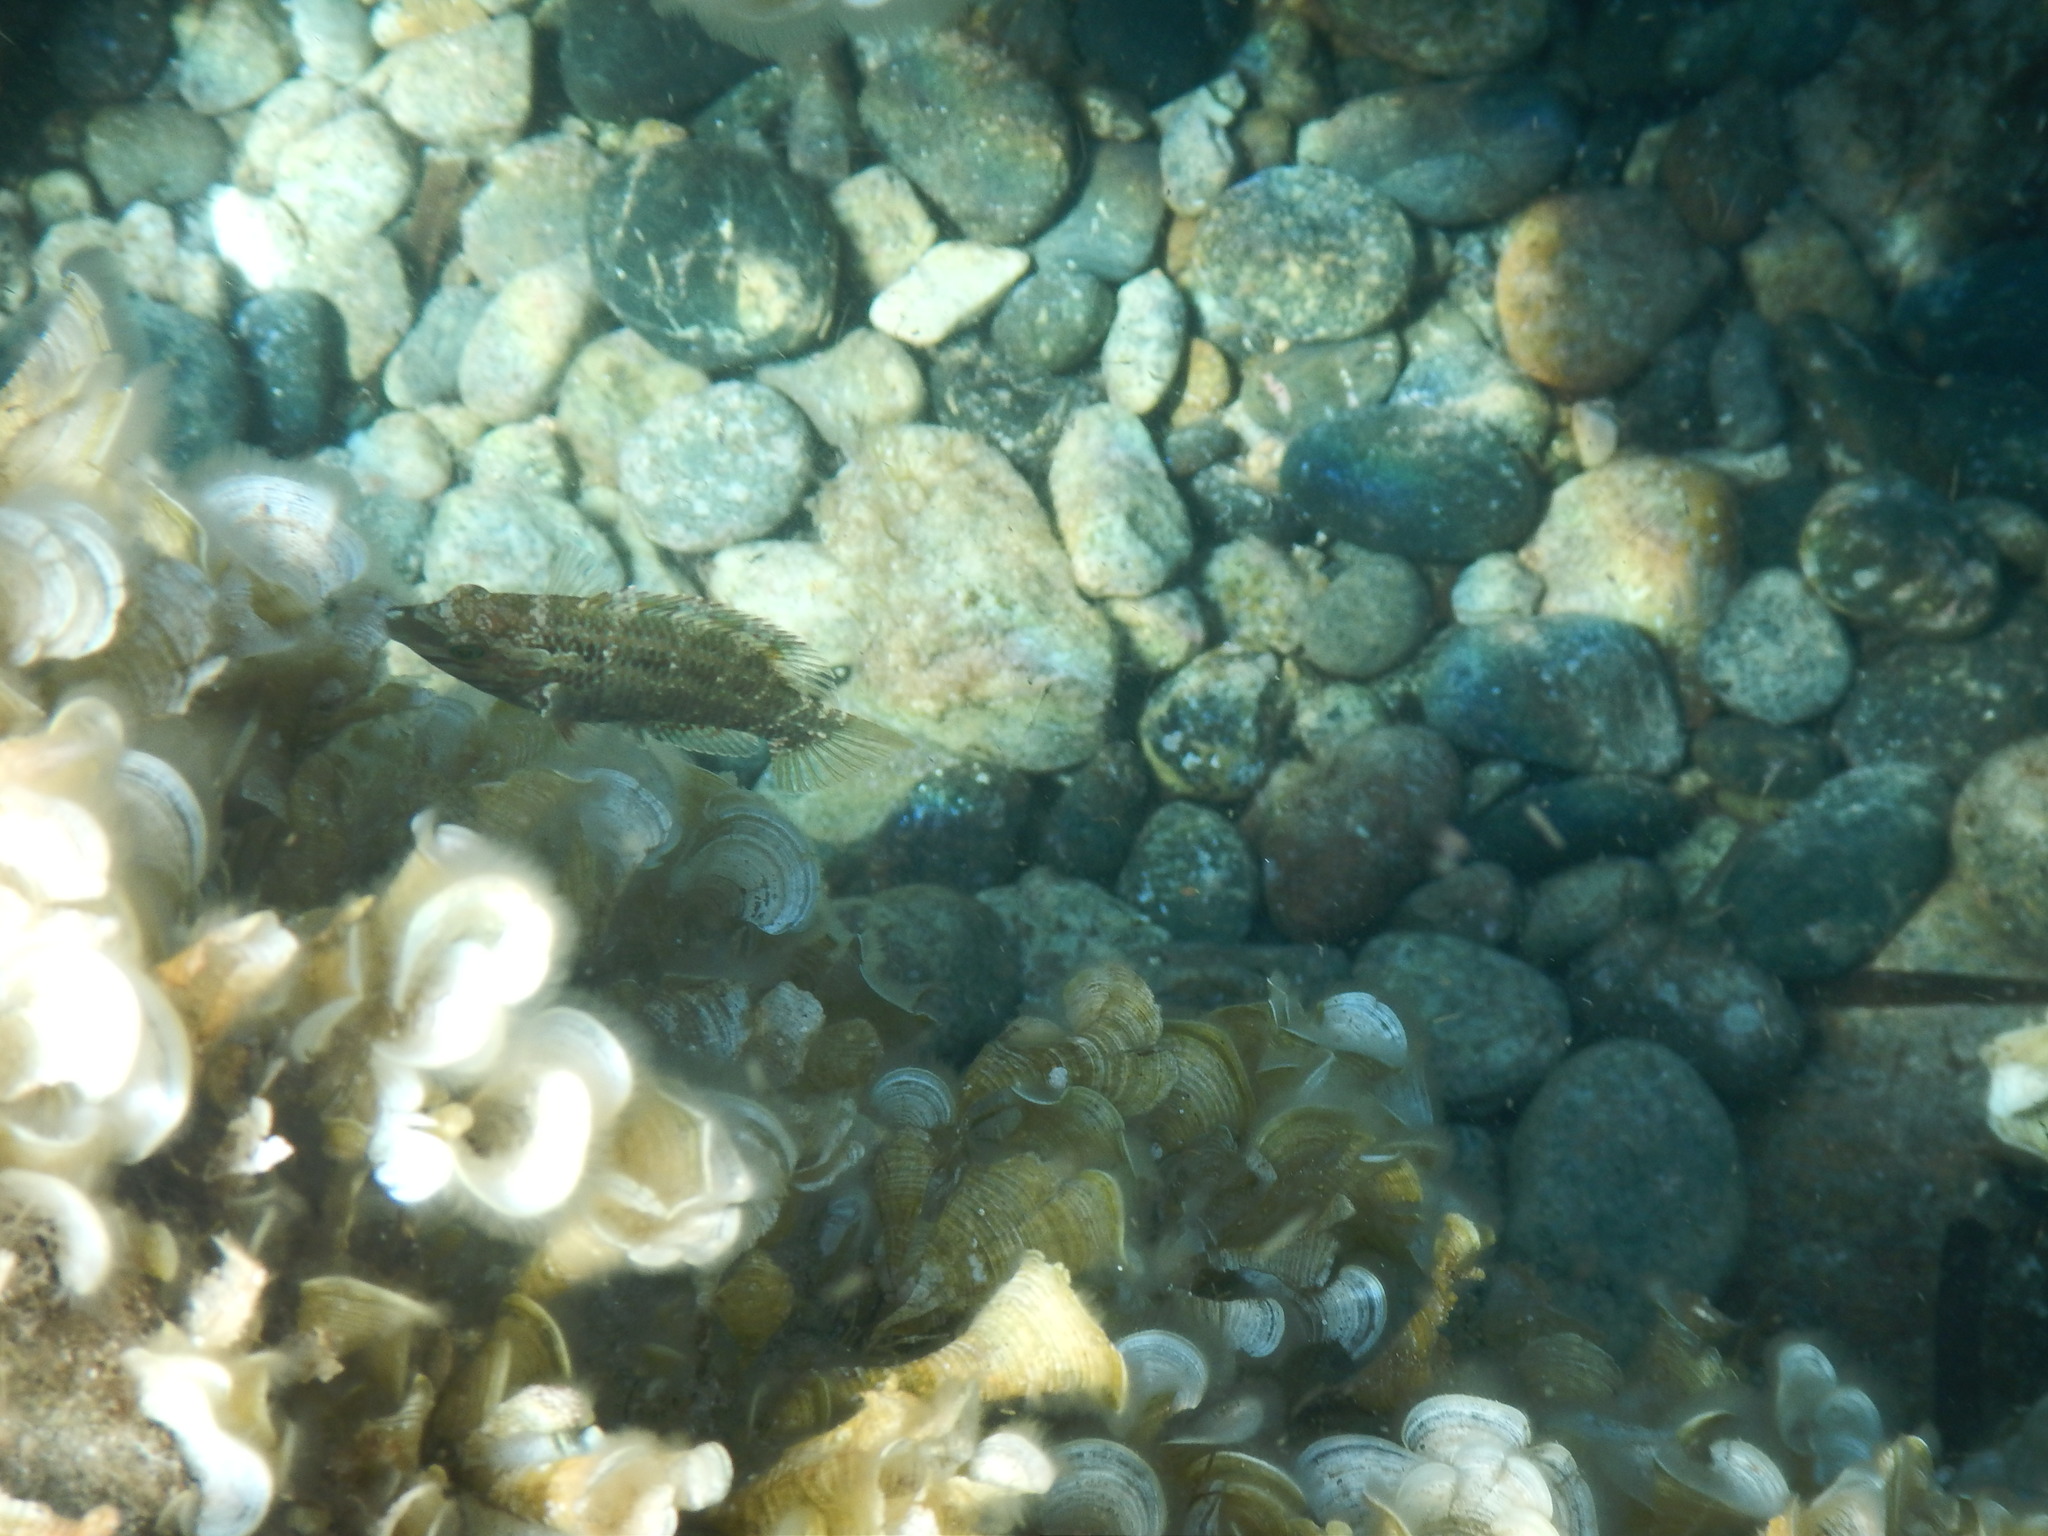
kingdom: Animalia
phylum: Chordata
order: Perciformes
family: Labridae
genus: Symphodus
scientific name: Symphodus roissali
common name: Five-spotted wrasse
